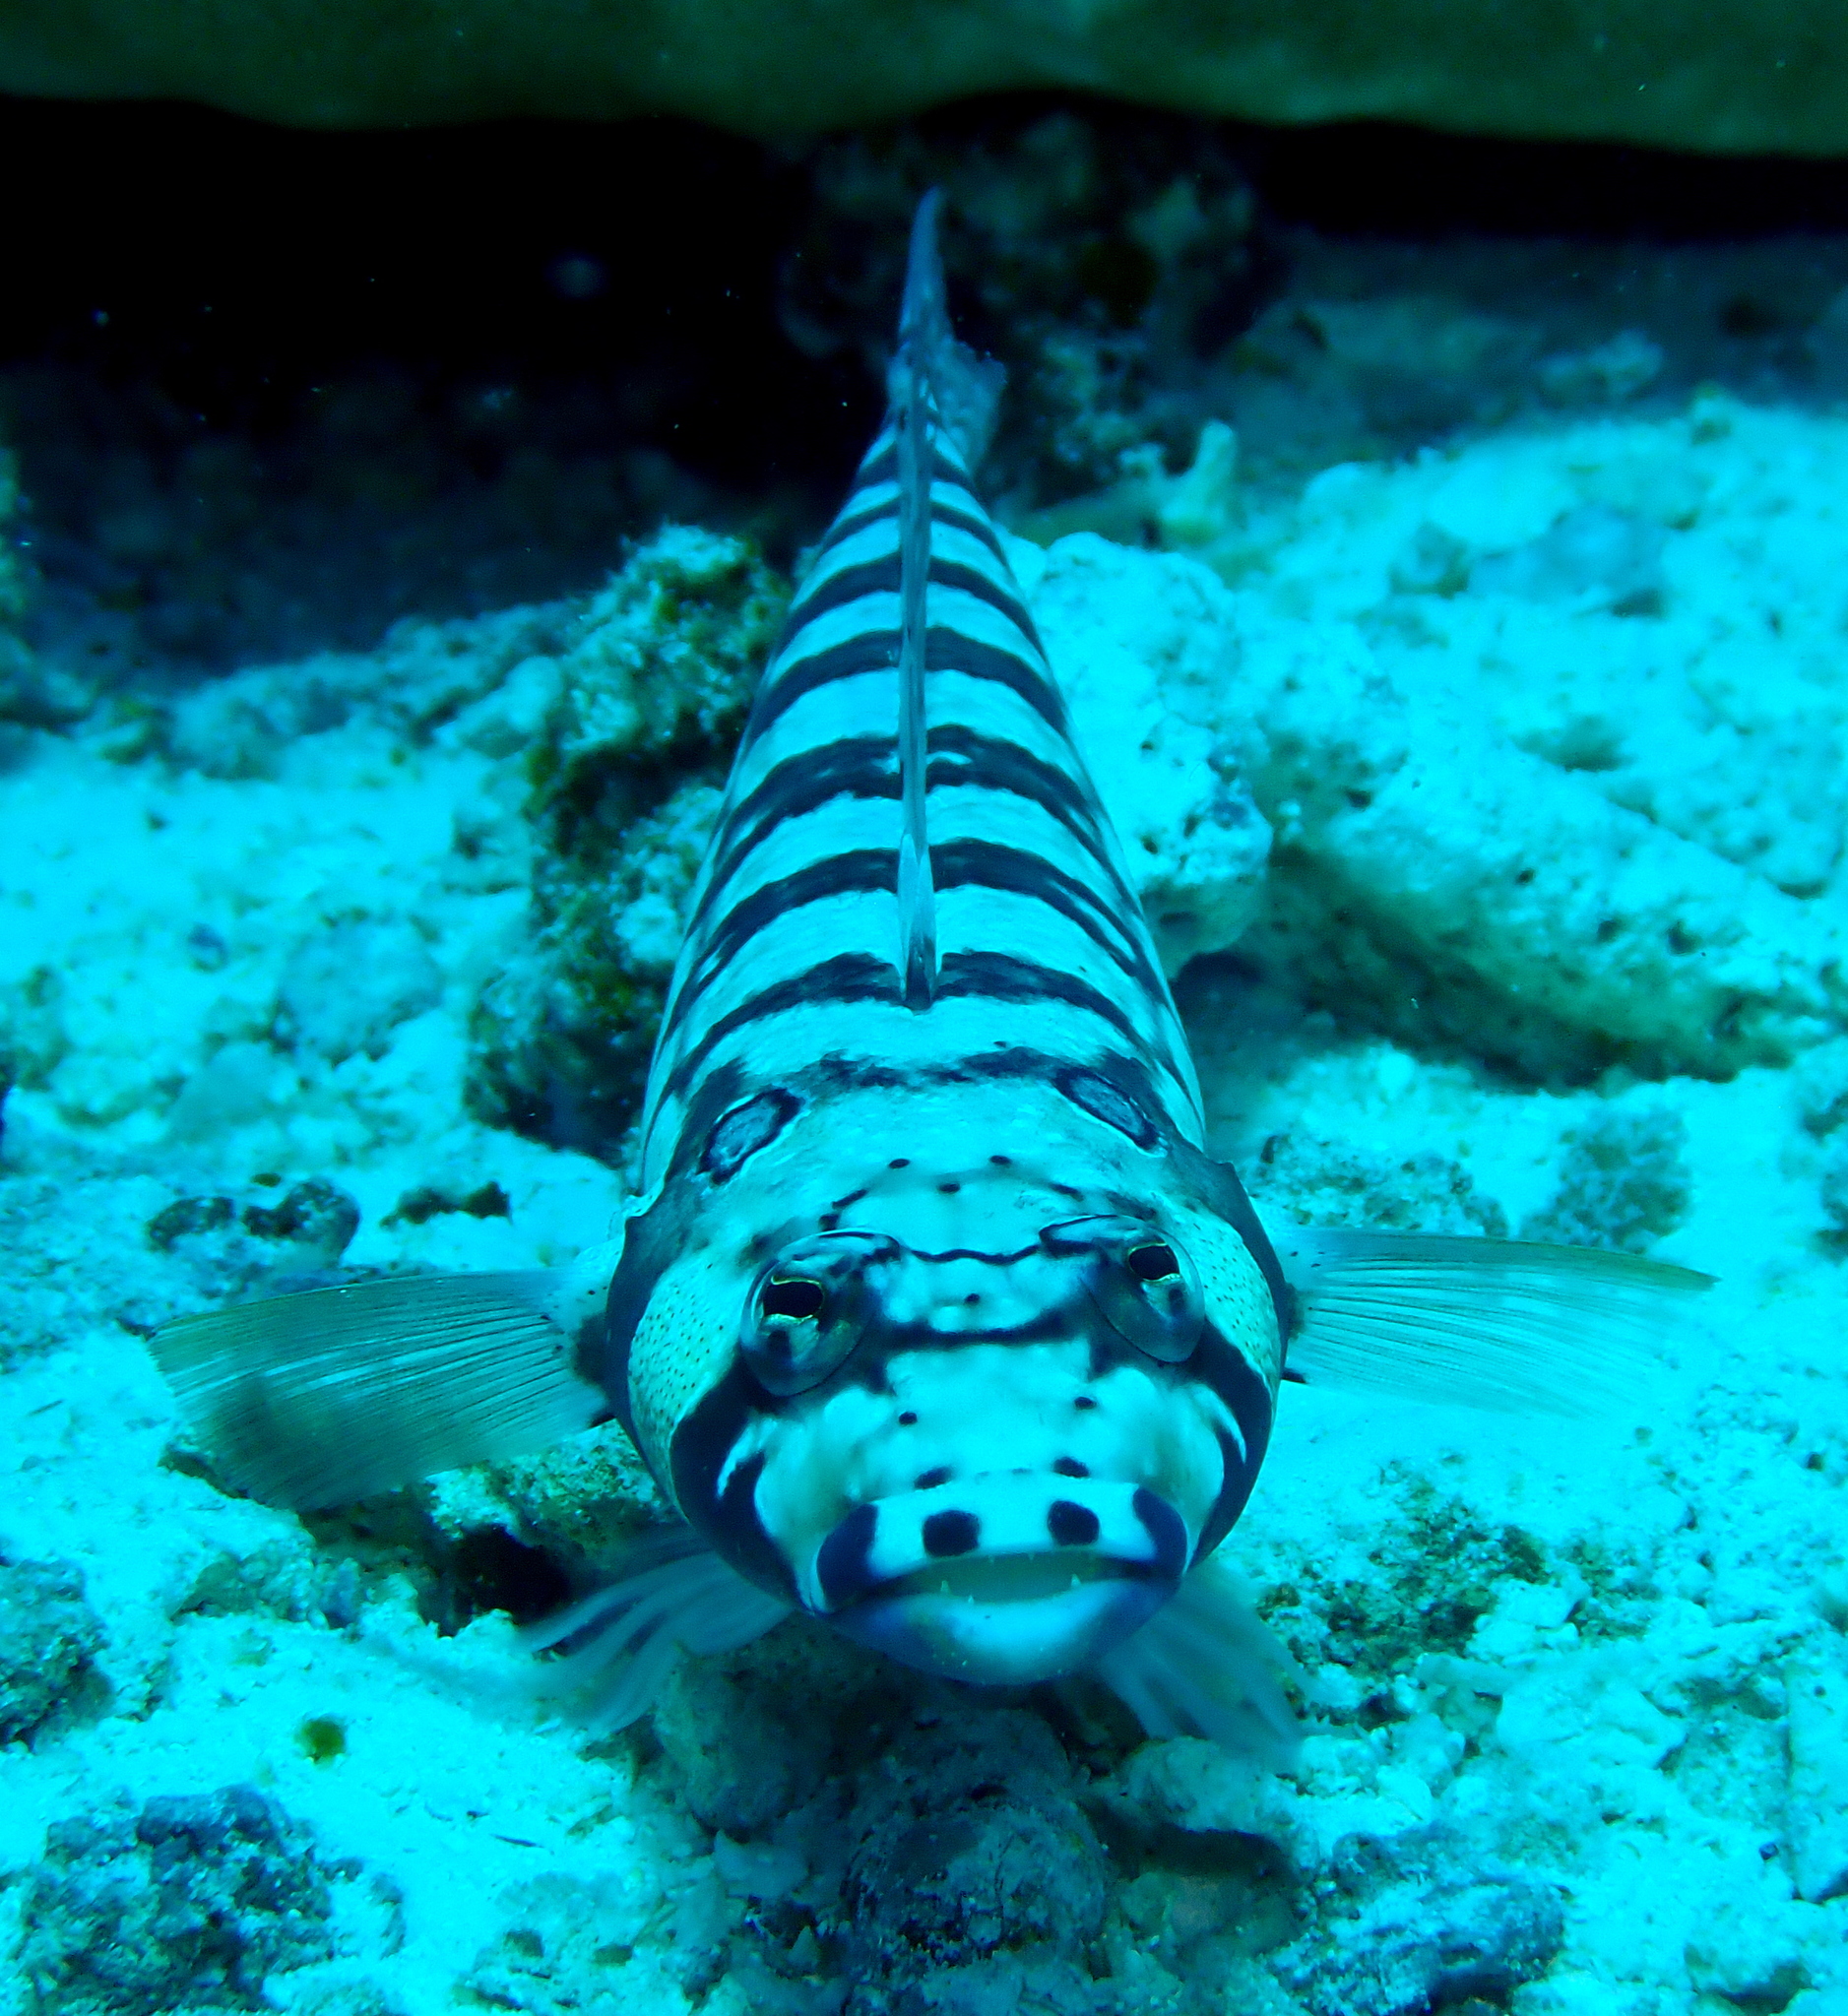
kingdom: Animalia
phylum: Chordata
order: Perciformes
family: Pinguipedidae
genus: Parapercis
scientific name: Parapercis tetracantha
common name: Black-banded grubfish
